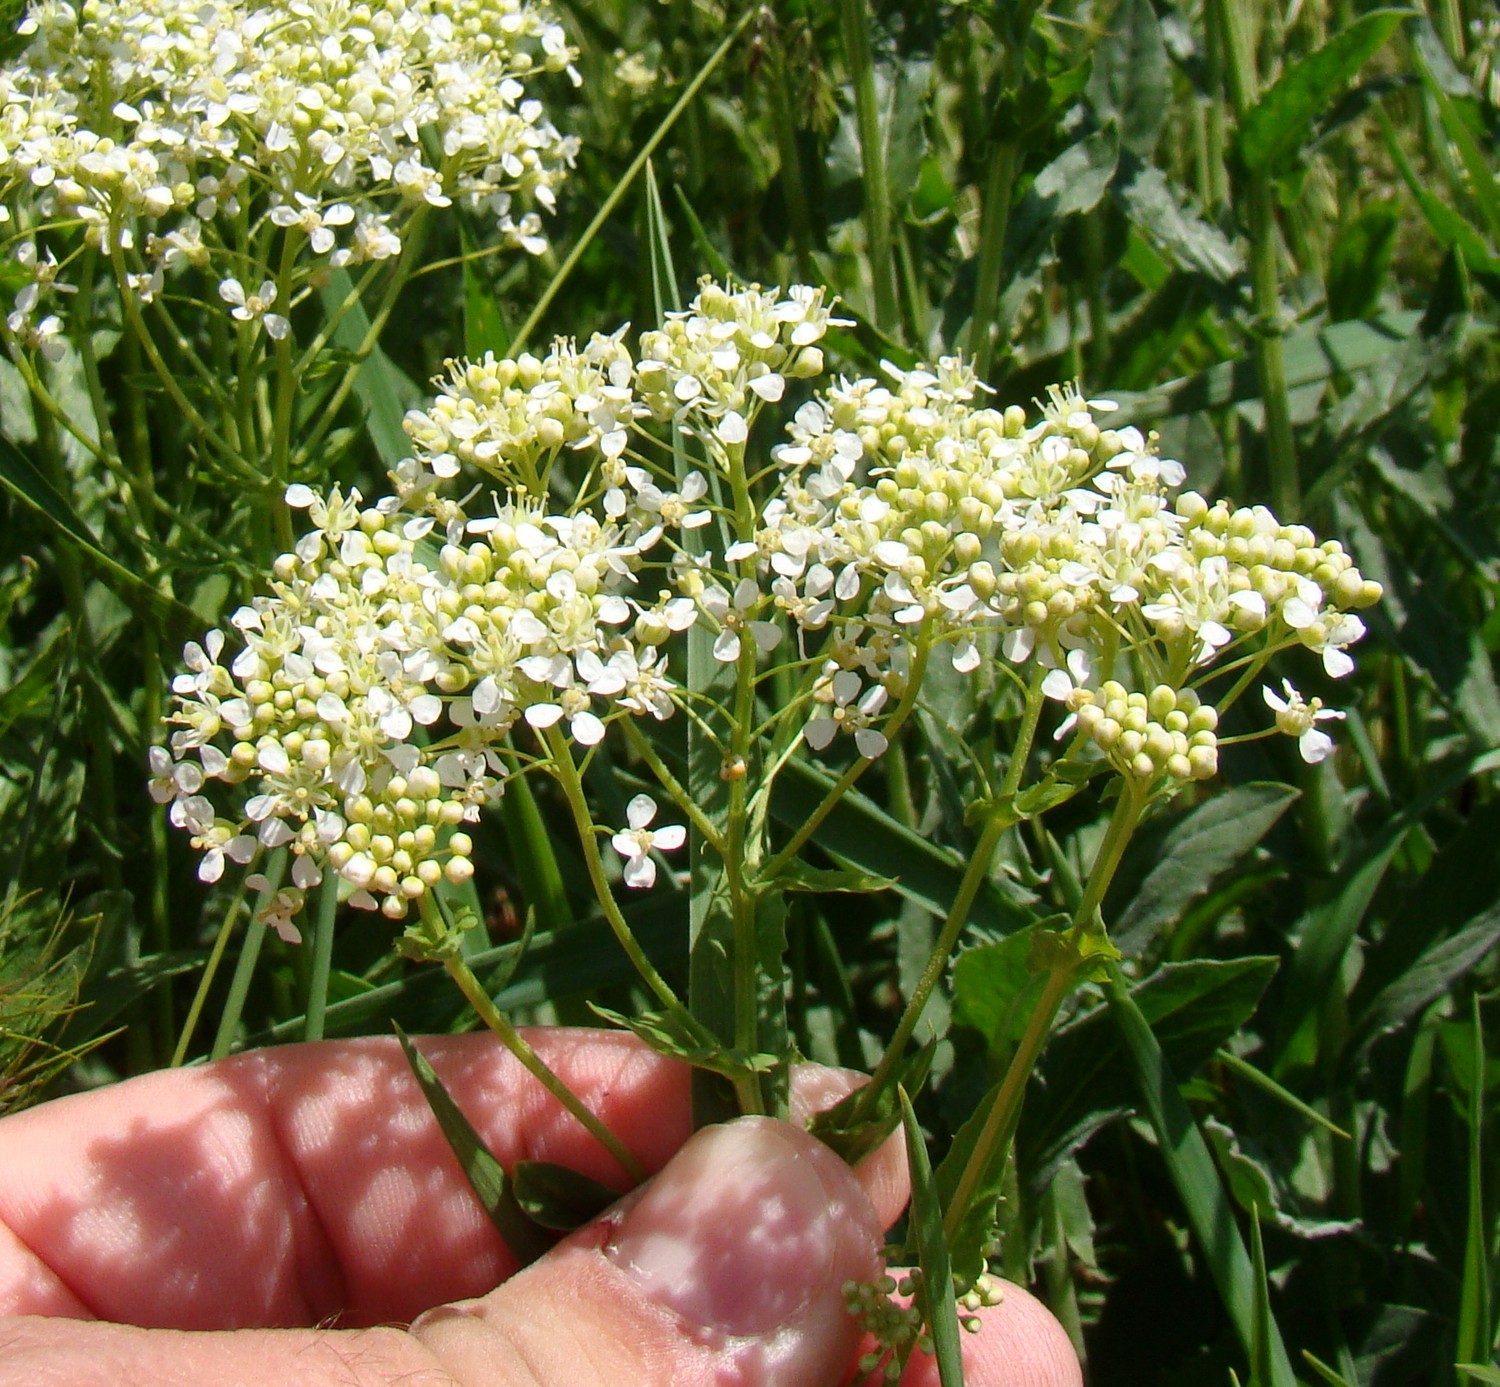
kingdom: Plantae
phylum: Tracheophyta
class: Magnoliopsida
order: Brassicales
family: Brassicaceae
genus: Lepidium
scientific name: Lepidium draba
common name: Hoary cress
